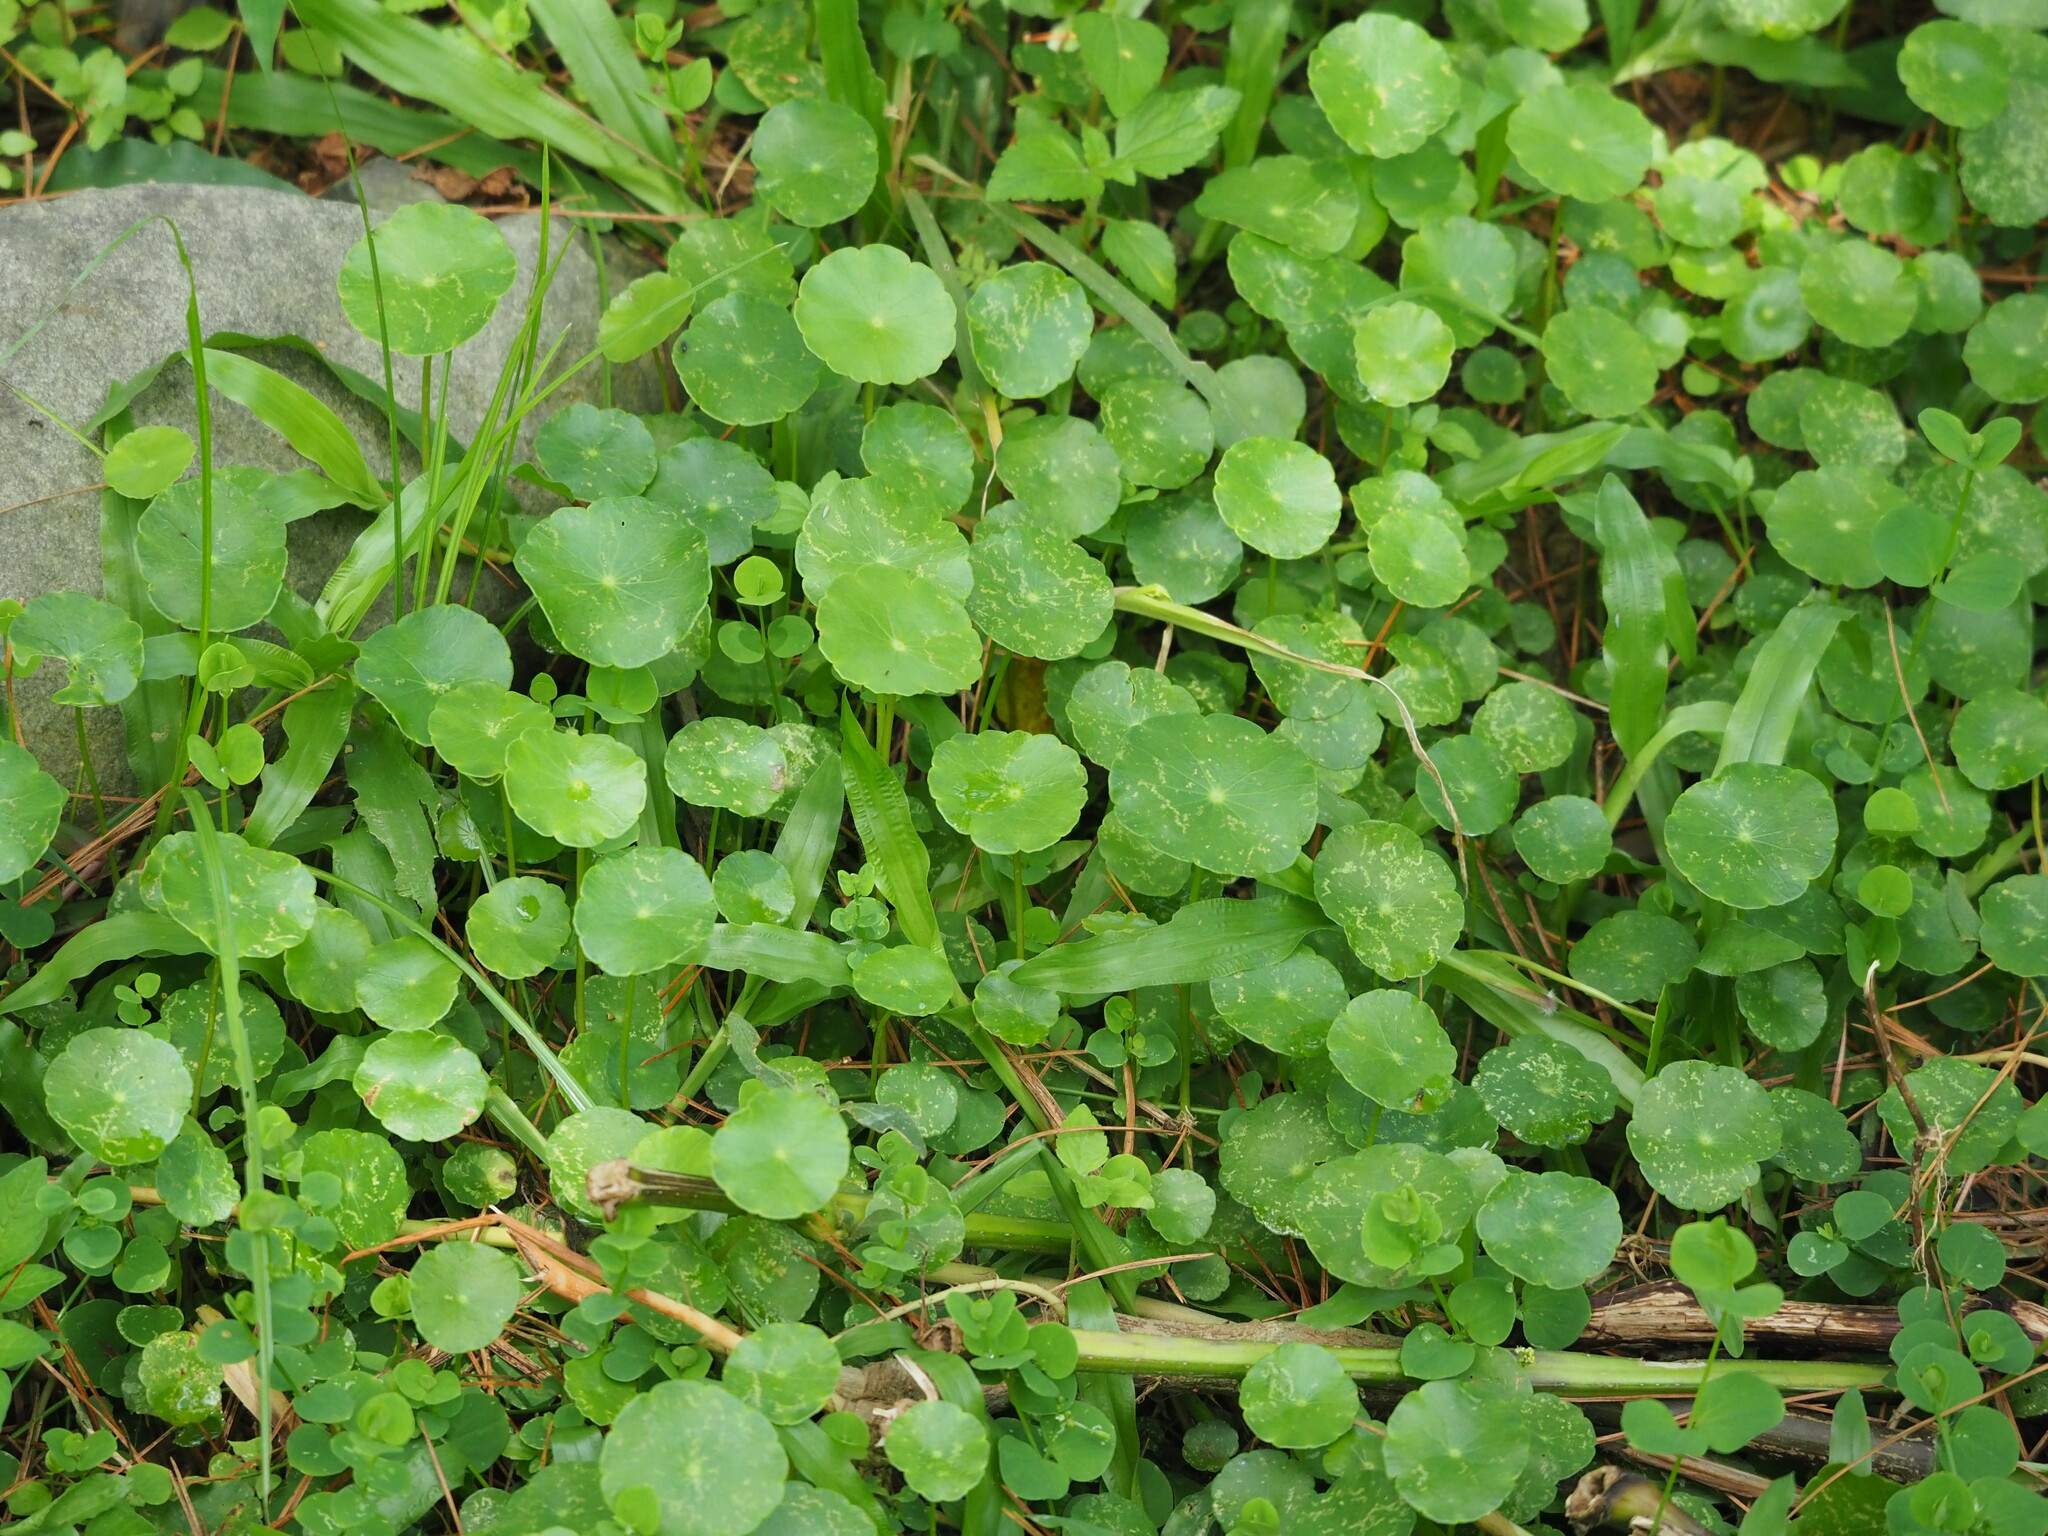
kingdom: Plantae
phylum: Tracheophyta
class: Magnoliopsida
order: Apiales
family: Araliaceae
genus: Hydrocotyle
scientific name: Hydrocotyle verticillata
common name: Whorled marshpennywort
